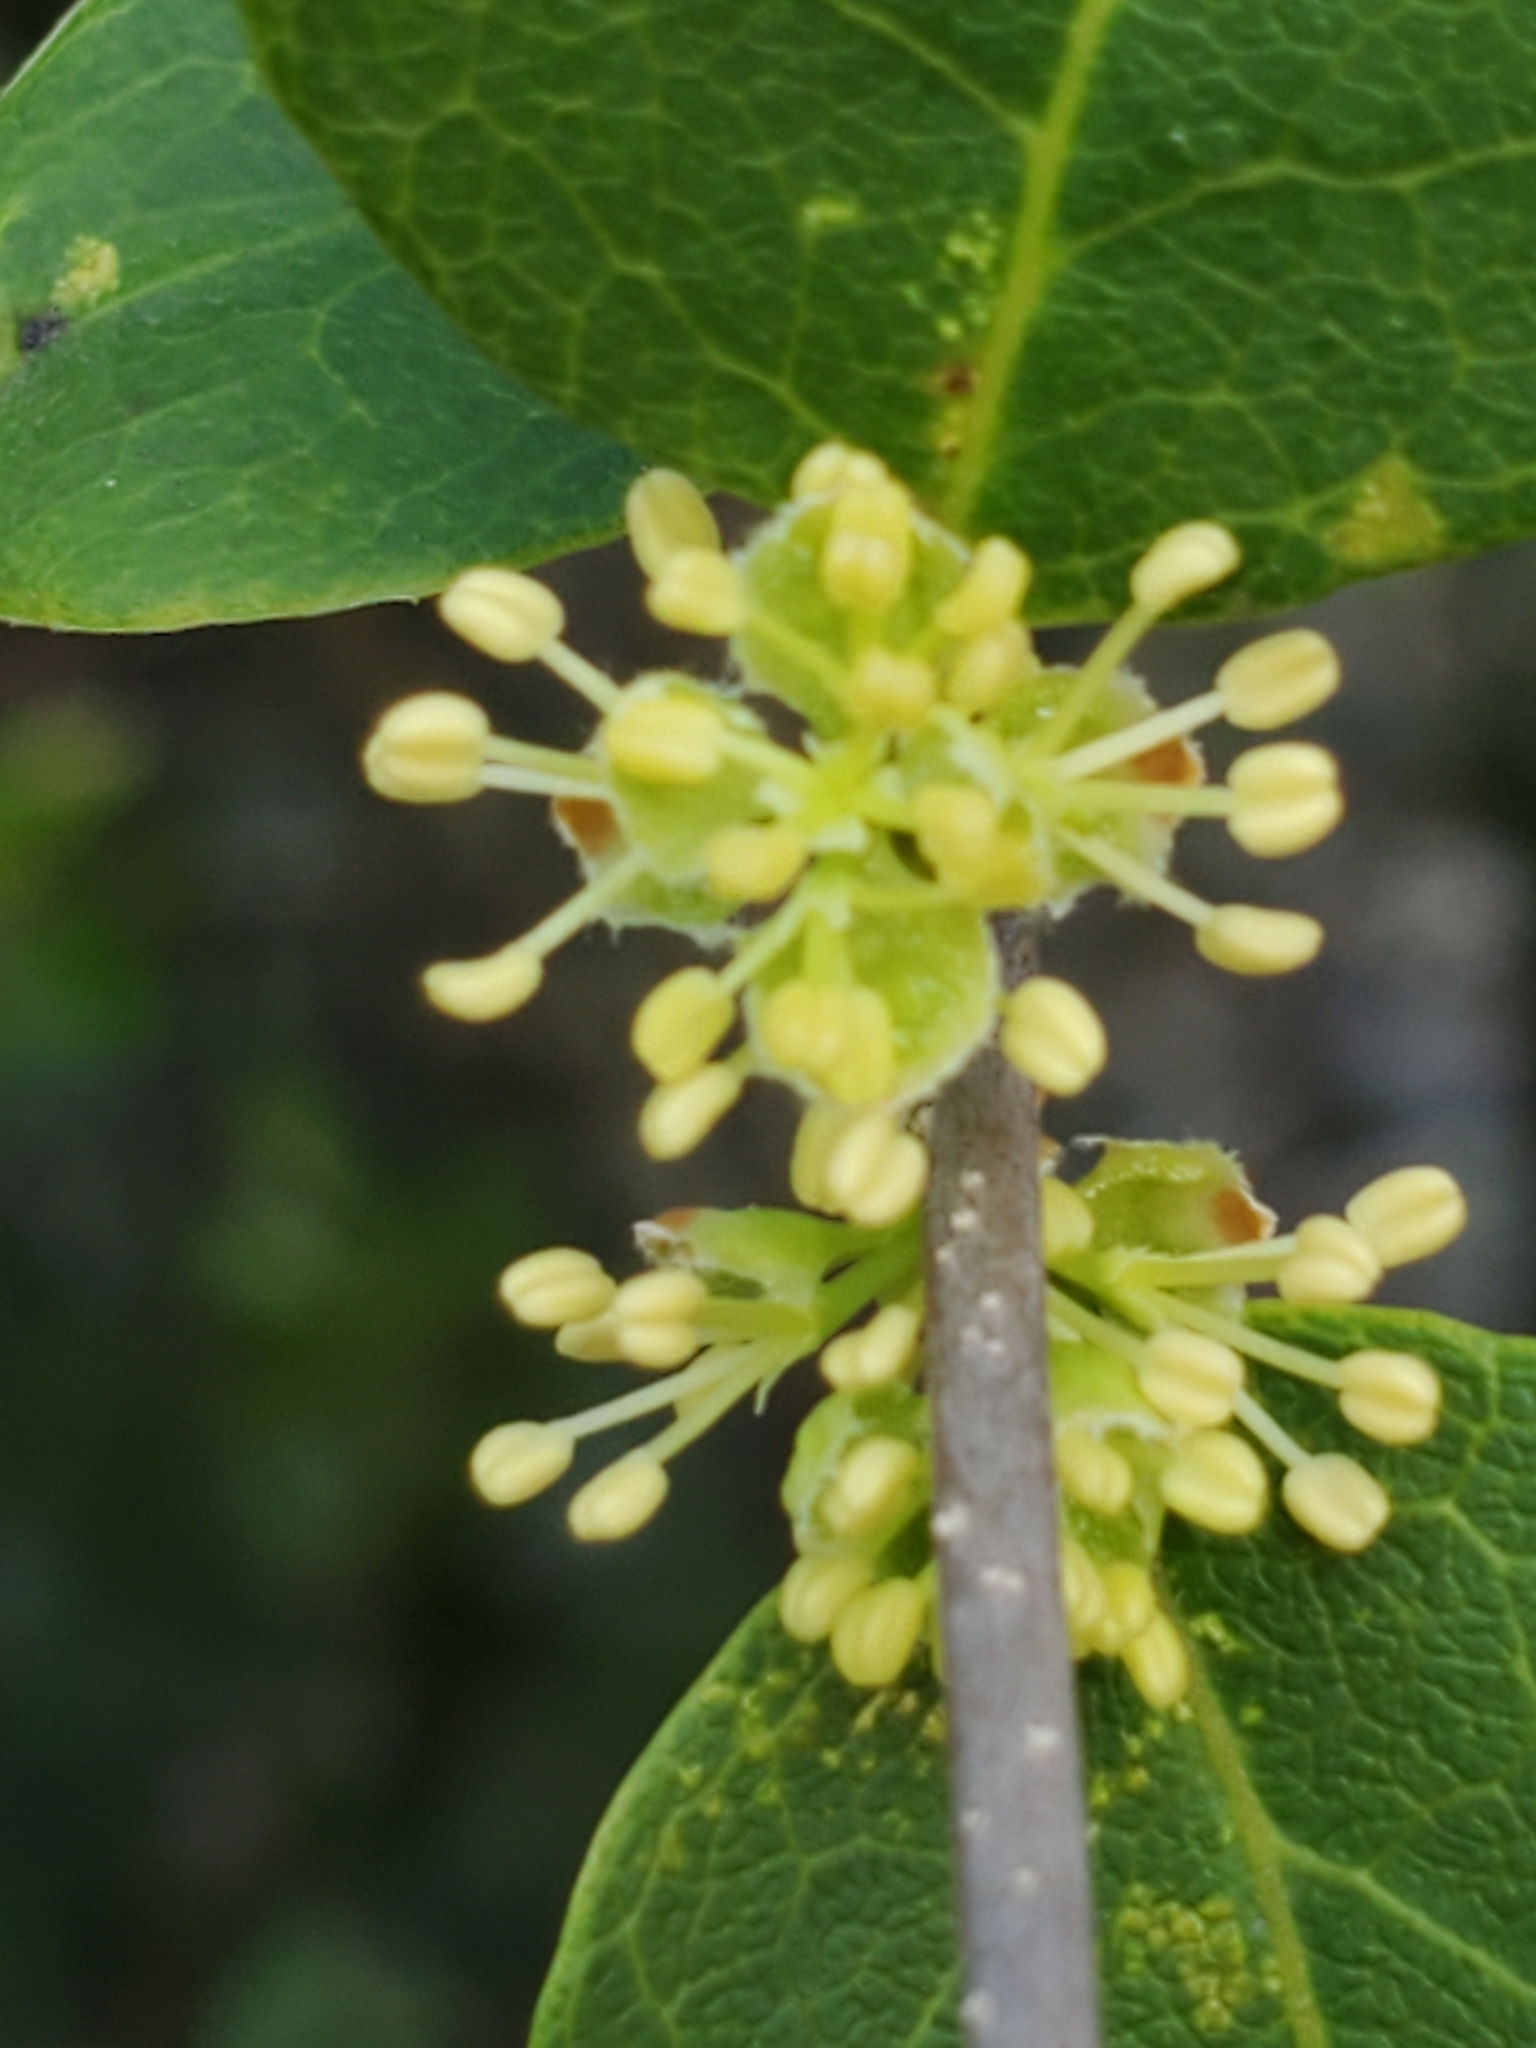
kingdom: Plantae
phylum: Tracheophyta
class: Magnoliopsida
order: Lamiales
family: Oleaceae
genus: Forestiera
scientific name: Forestiera reticulata
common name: Netleaf swamp-privet
